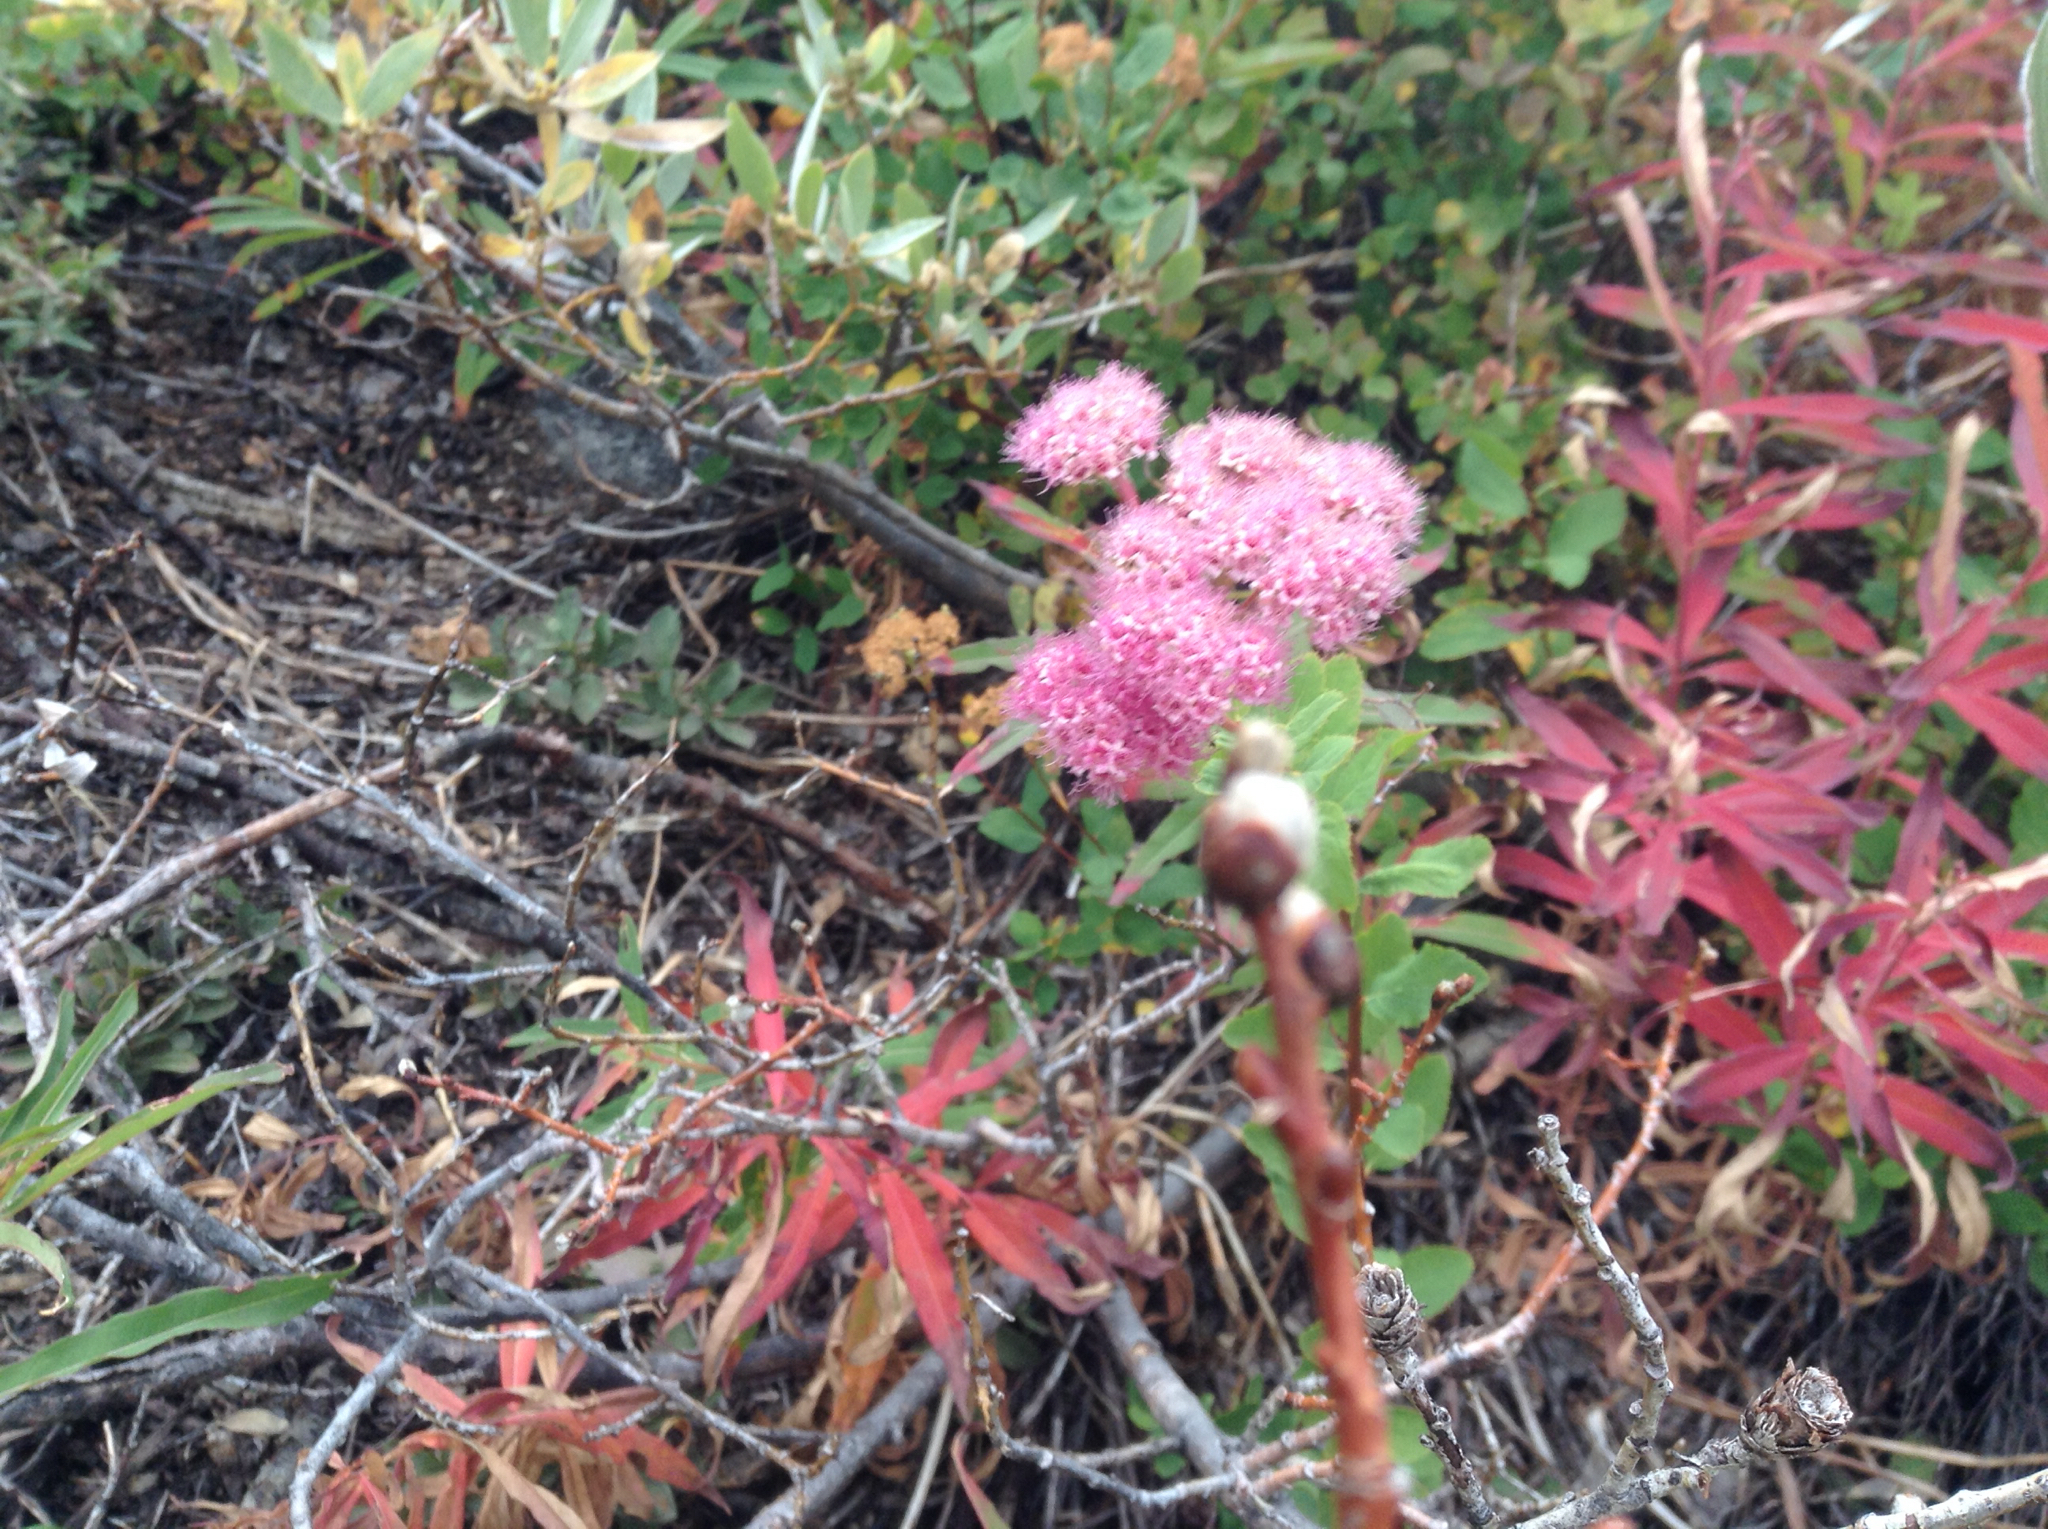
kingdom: Plantae
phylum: Tracheophyta
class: Magnoliopsida
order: Rosales
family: Rosaceae
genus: Spiraea
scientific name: Spiraea splendens
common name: Subalpine meadowsweet
